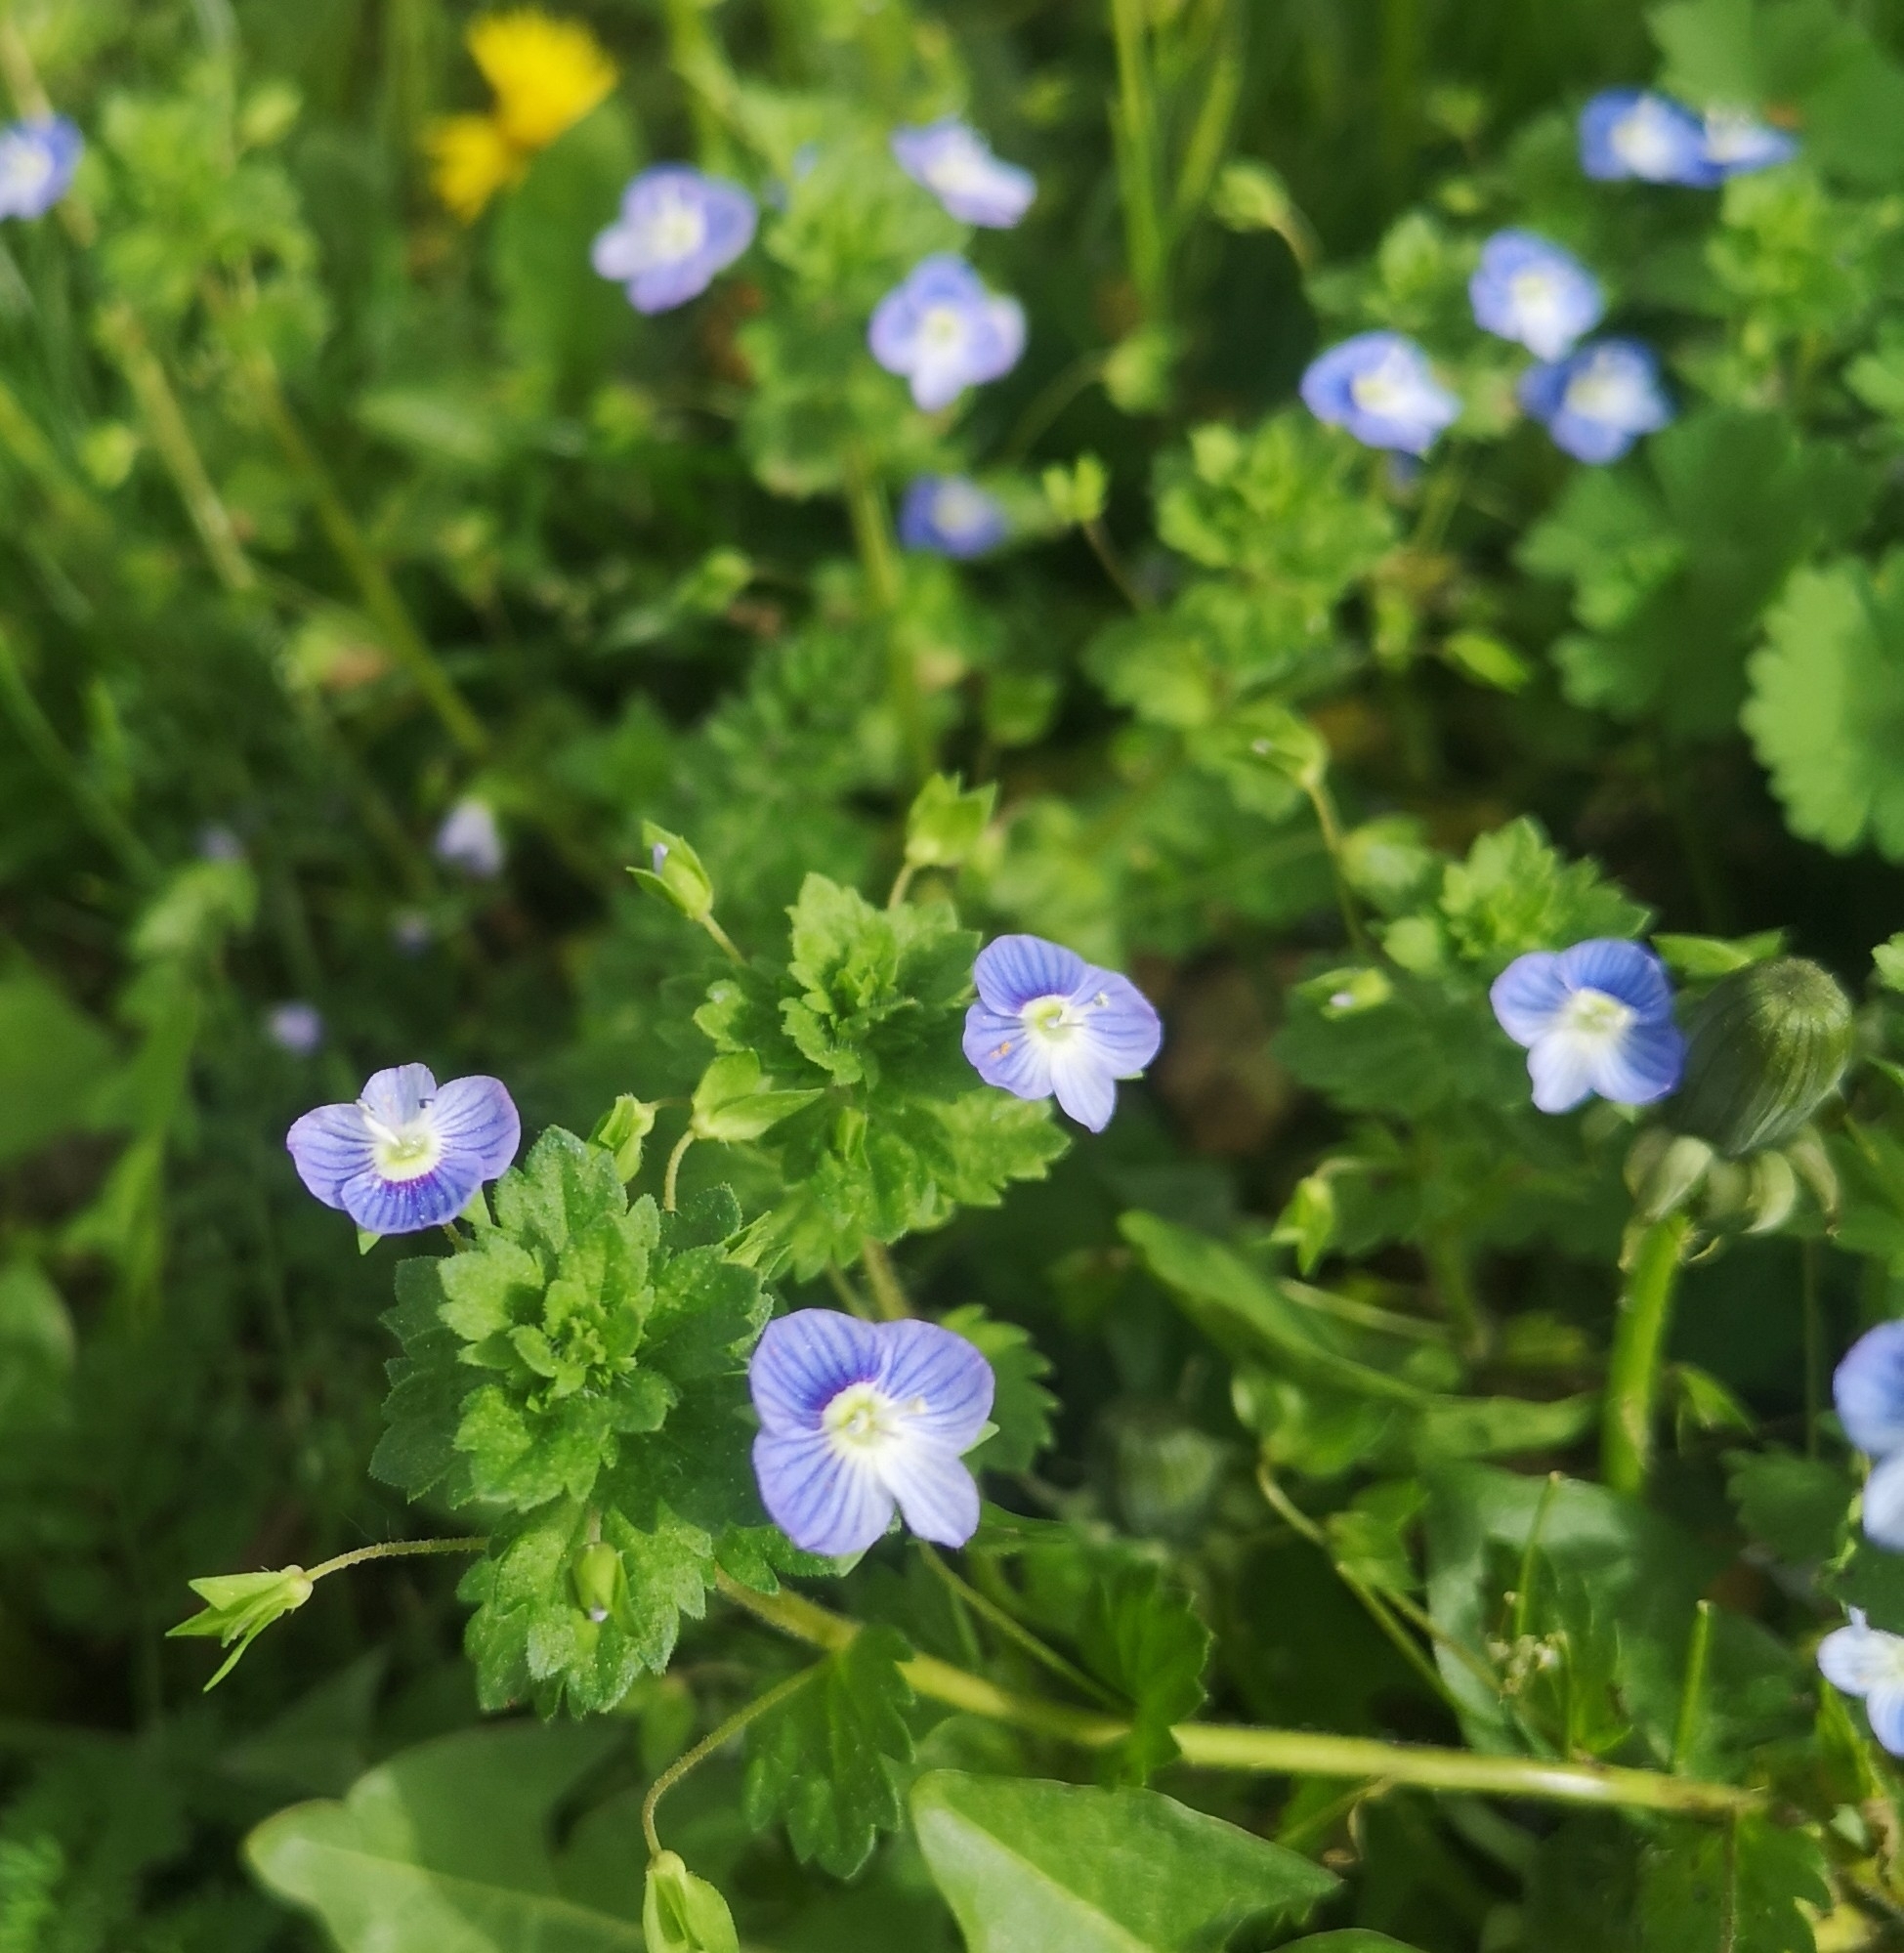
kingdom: Plantae
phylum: Tracheophyta
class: Magnoliopsida
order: Lamiales
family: Plantaginaceae
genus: Veronica
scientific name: Veronica persica
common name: Common field-speedwell
